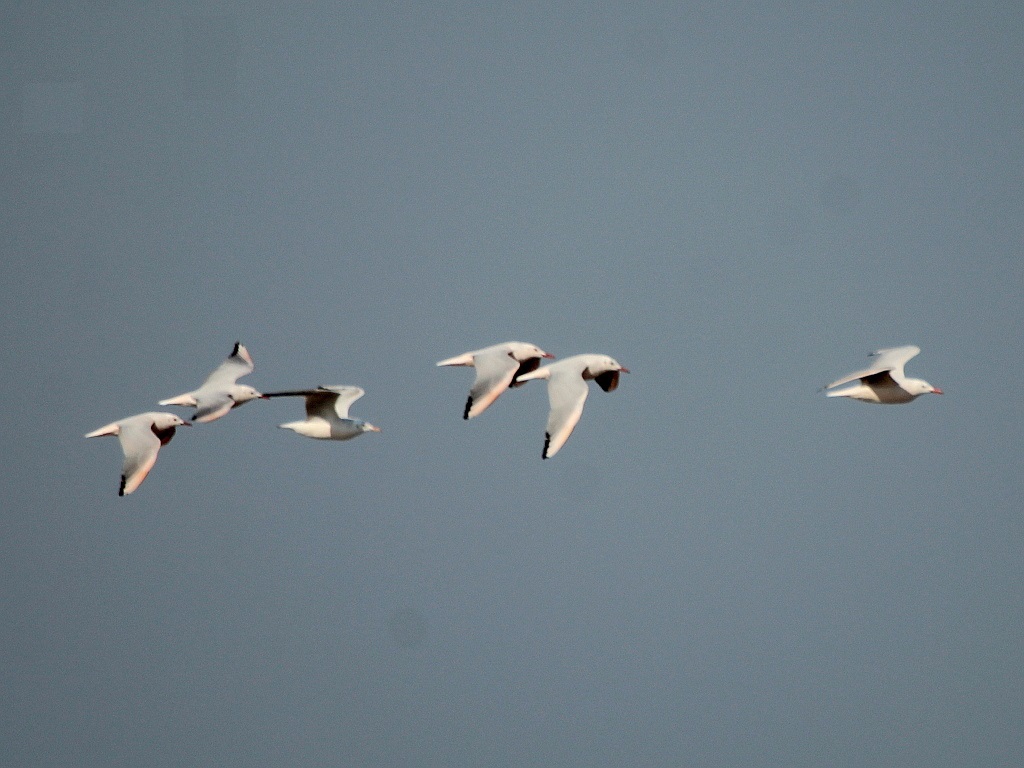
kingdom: Animalia
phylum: Chordata
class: Aves
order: Charadriiformes
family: Laridae
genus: Chroicocephalus
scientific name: Chroicocephalus genei
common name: Slender-billed gull
